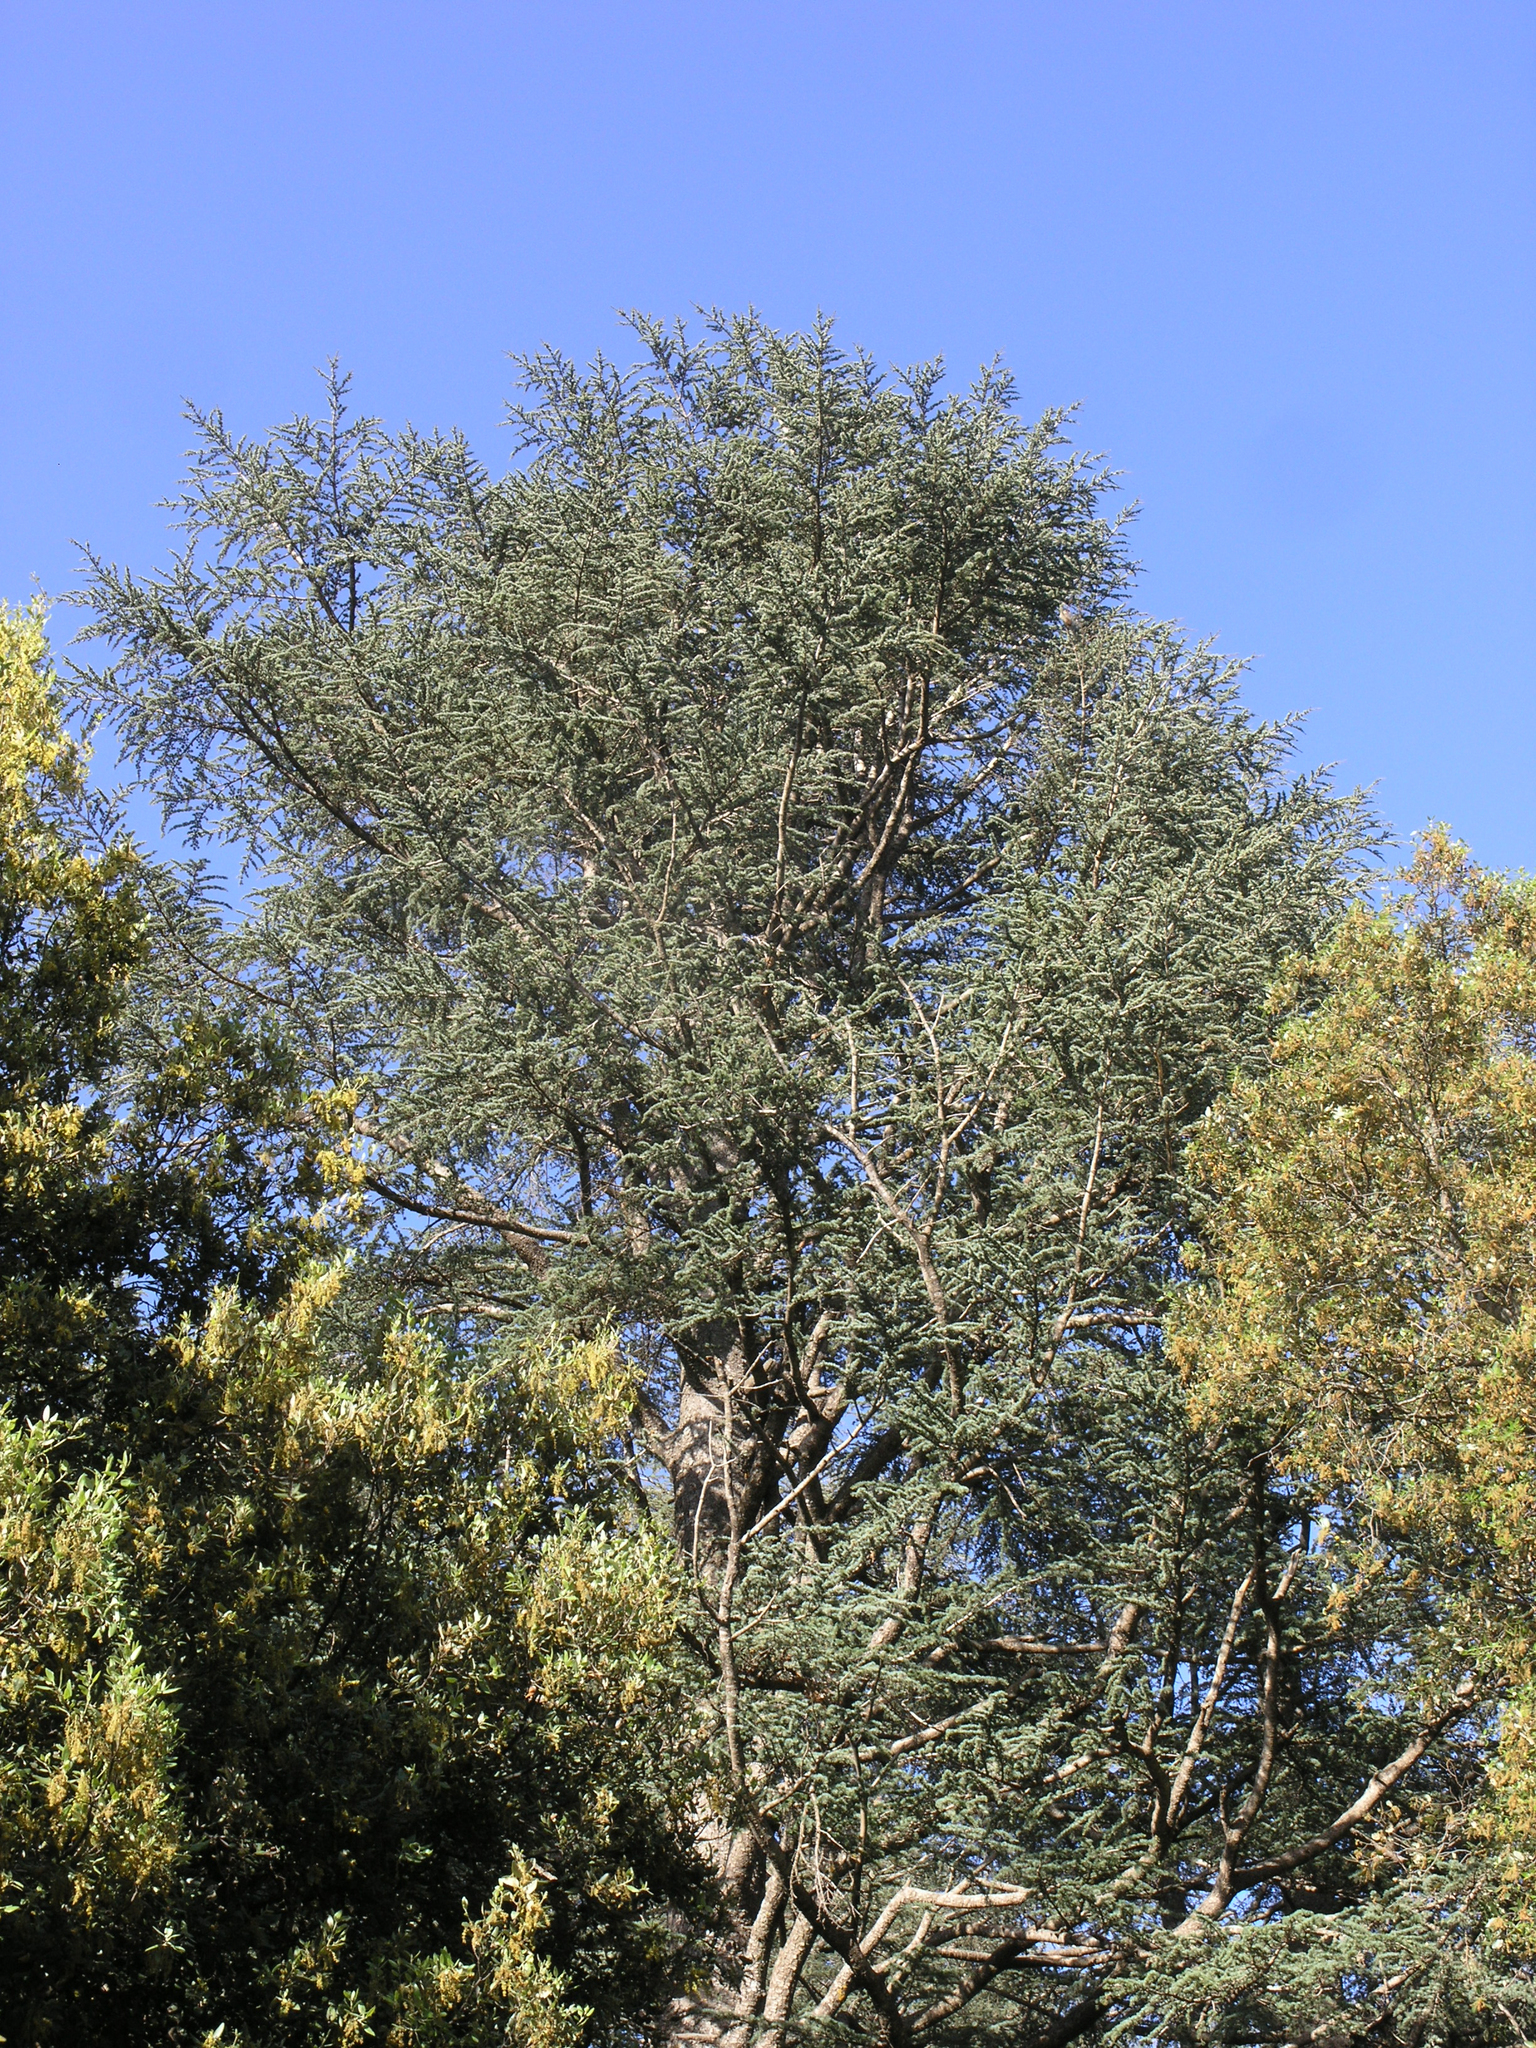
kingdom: Plantae
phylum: Tracheophyta
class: Pinopsida
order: Pinales
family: Pinaceae
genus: Cedrus
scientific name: Cedrus atlantica
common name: Atlas cedar
